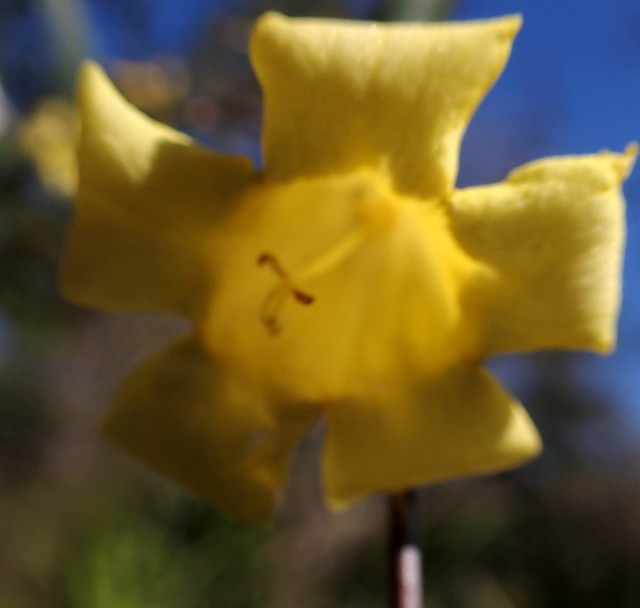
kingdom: Plantae
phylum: Tracheophyta
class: Magnoliopsida
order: Gentianales
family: Gelsemiaceae
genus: Gelsemium
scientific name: Gelsemium sempervirens
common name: Carolina-jasmine
